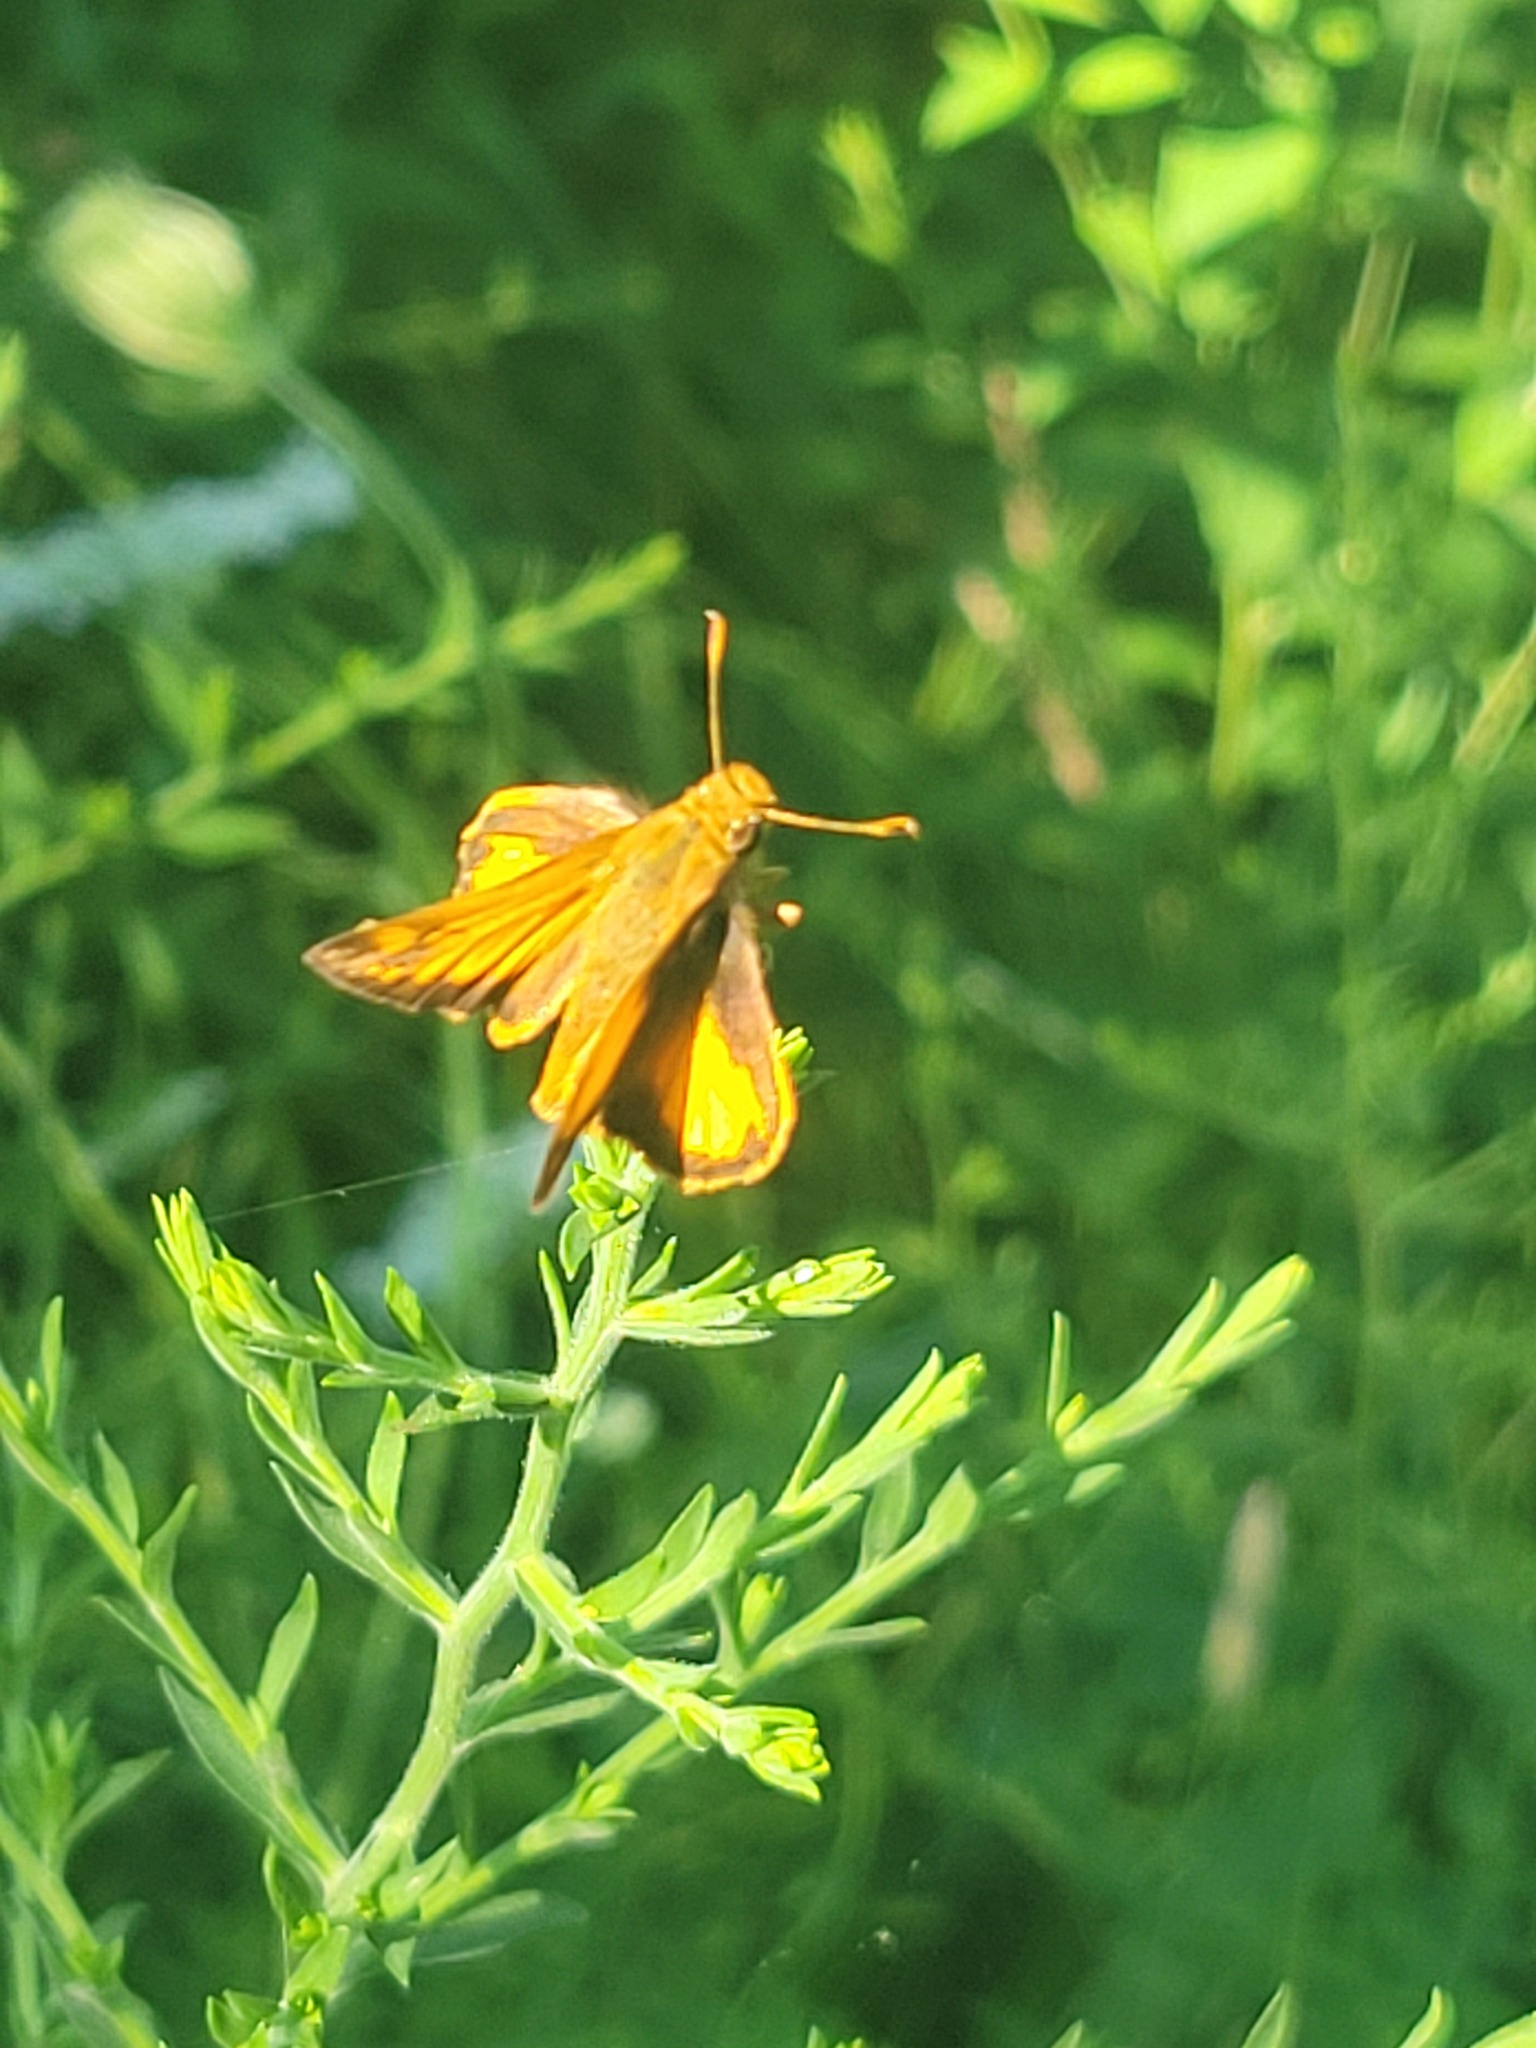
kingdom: Animalia
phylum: Arthropoda
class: Insecta
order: Lepidoptera
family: Hesperiidae
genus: Lon
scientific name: Lon zabulon
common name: Zabulon skipper
